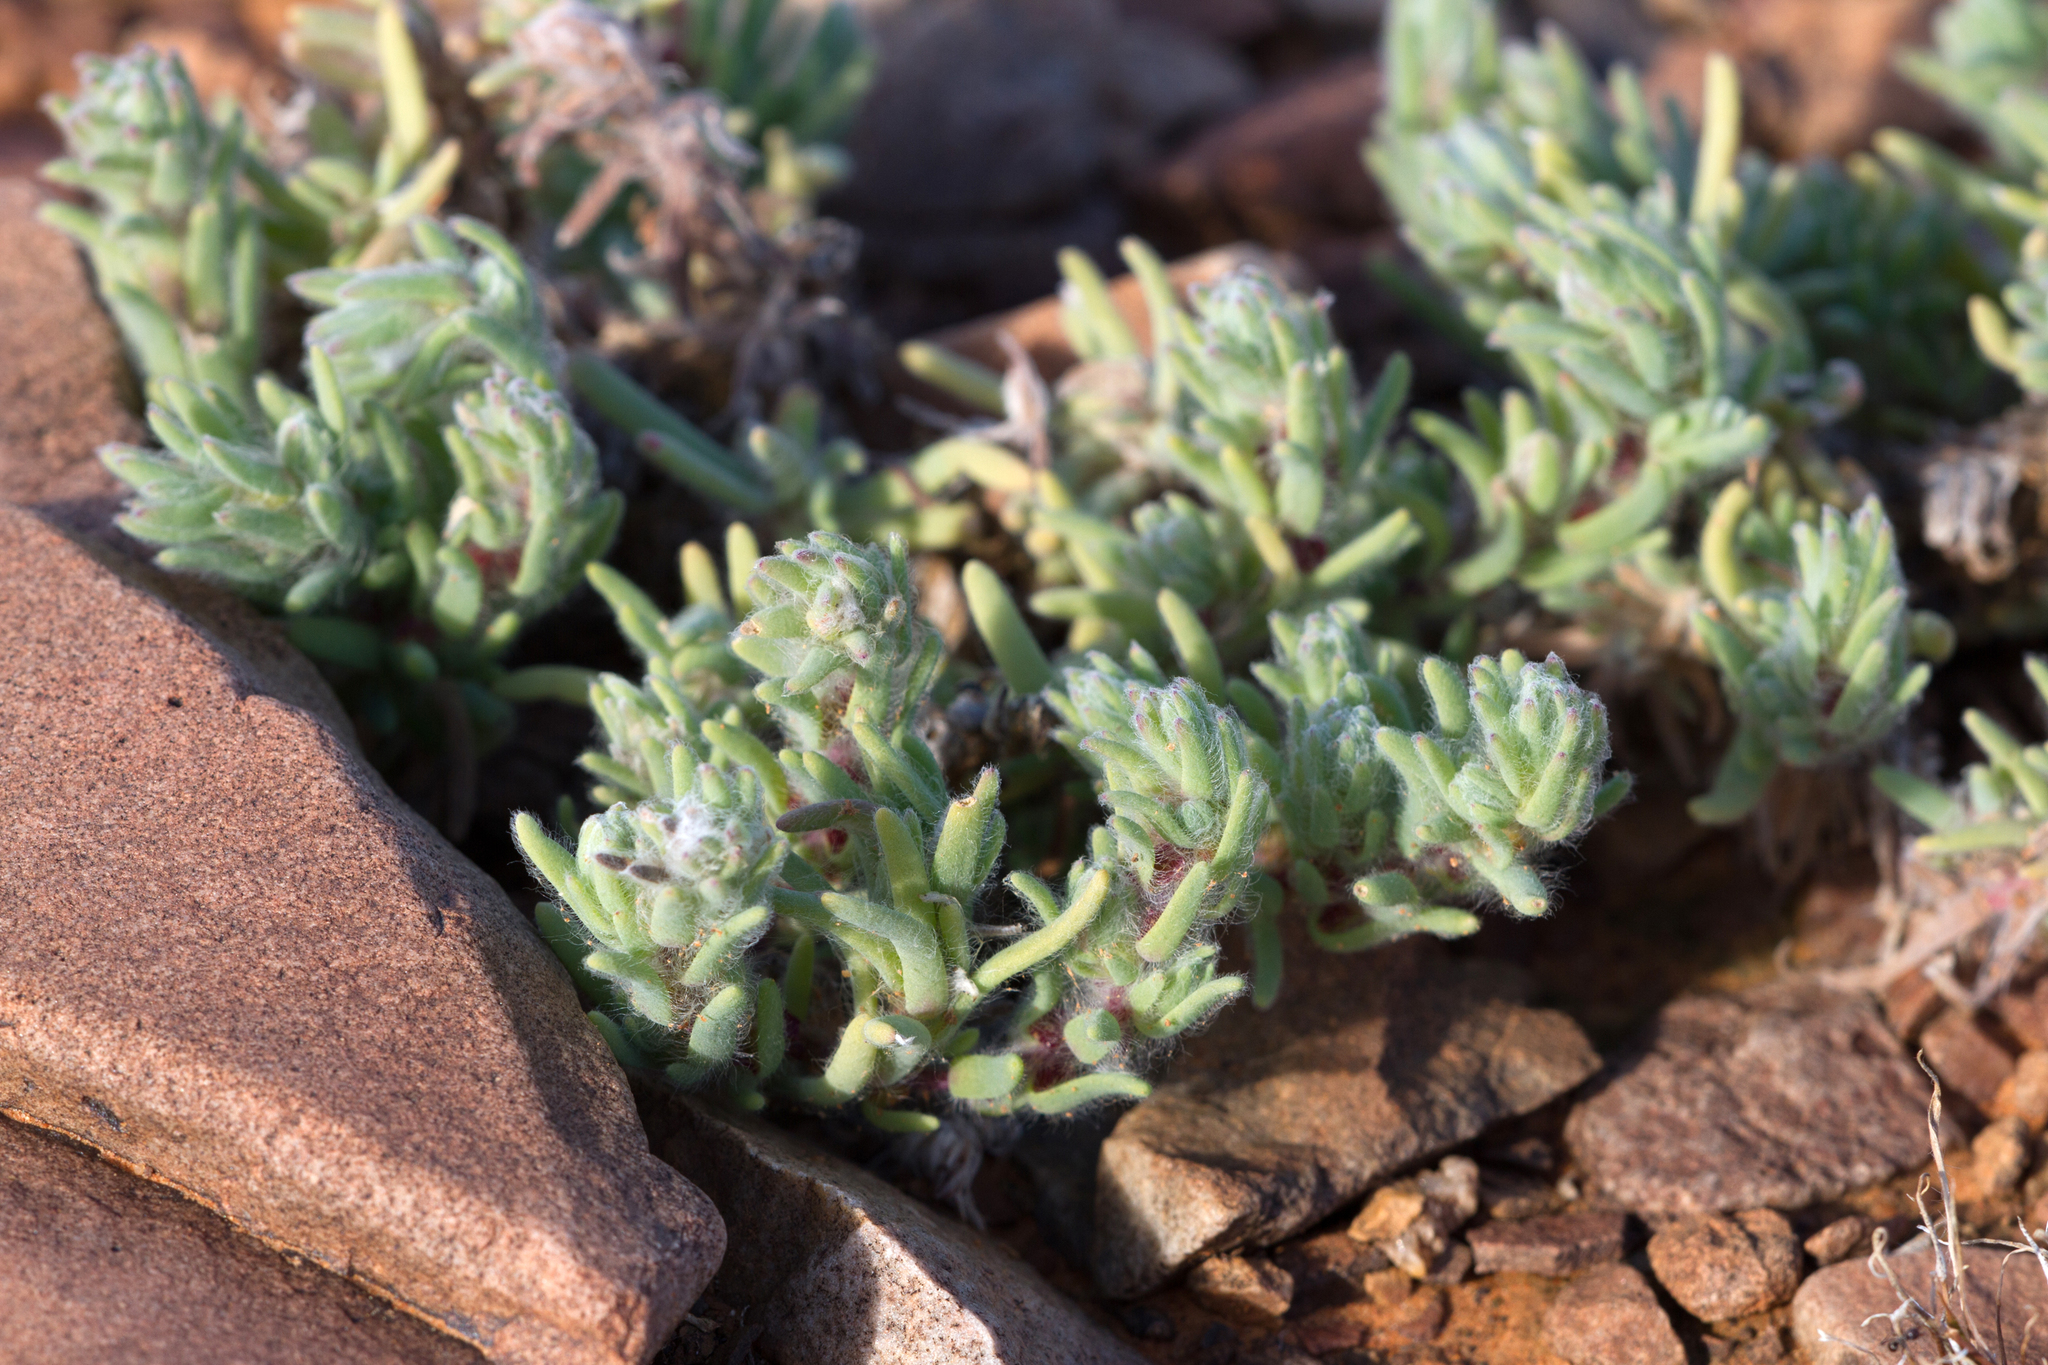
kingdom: Plantae
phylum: Tracheophyta
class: Magnoliopsida
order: Caryophyllales
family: Amaranthaceae
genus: Sclerolaena
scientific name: Sclerolaena brachyptera
